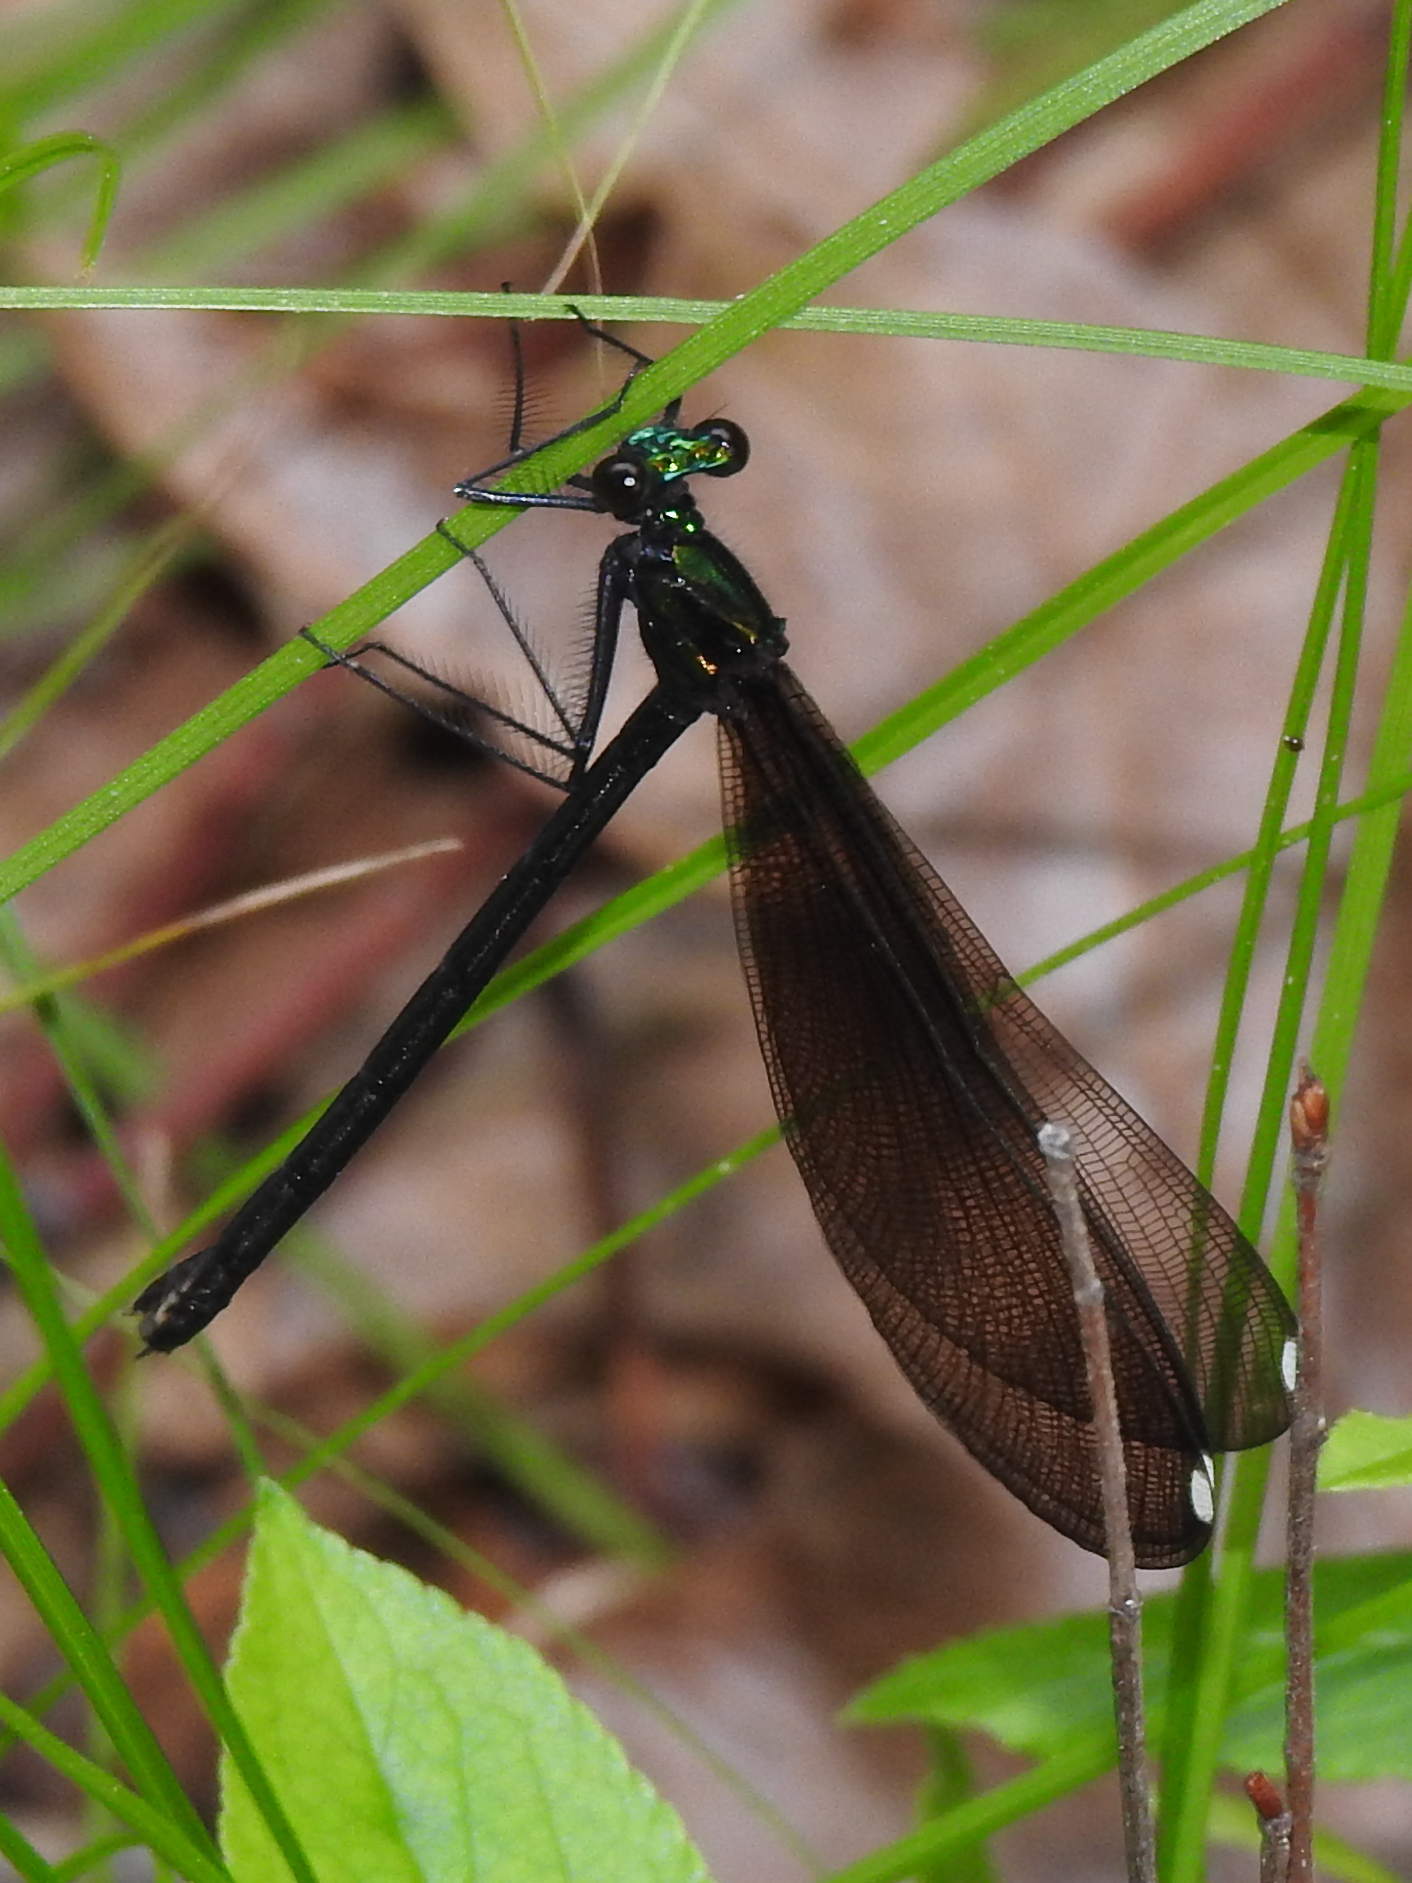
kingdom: Animalia
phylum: Arthropoda
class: Insecta
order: Odonata
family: Calopterygidae
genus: Calopteryx
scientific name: Calopteryx maculata
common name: Ebony jewelwing
